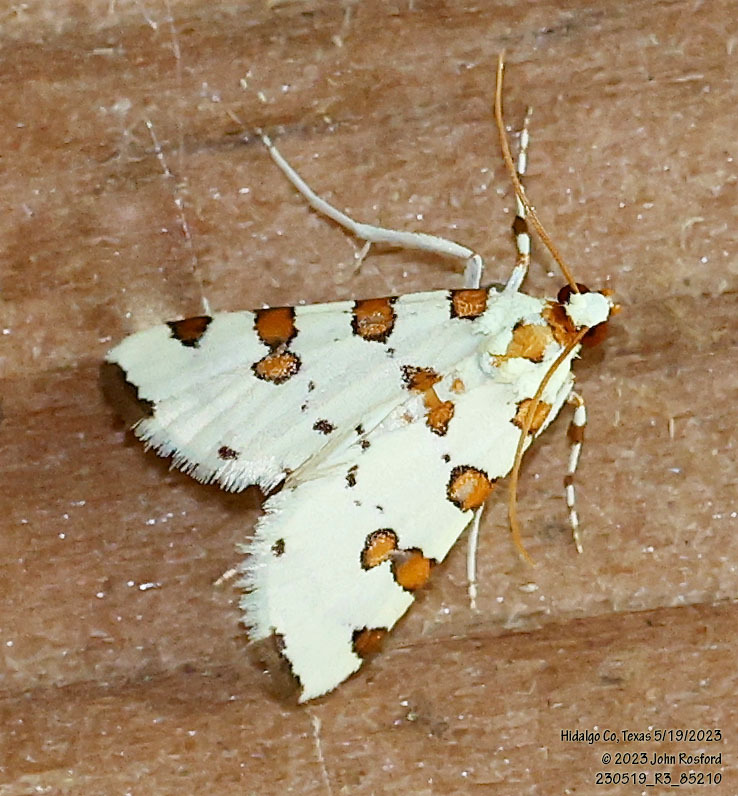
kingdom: Animalia
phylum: Arthropoda
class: Insecta
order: Lepidoptera
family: Crambidae
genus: Conchylodes
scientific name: Conchylodes
